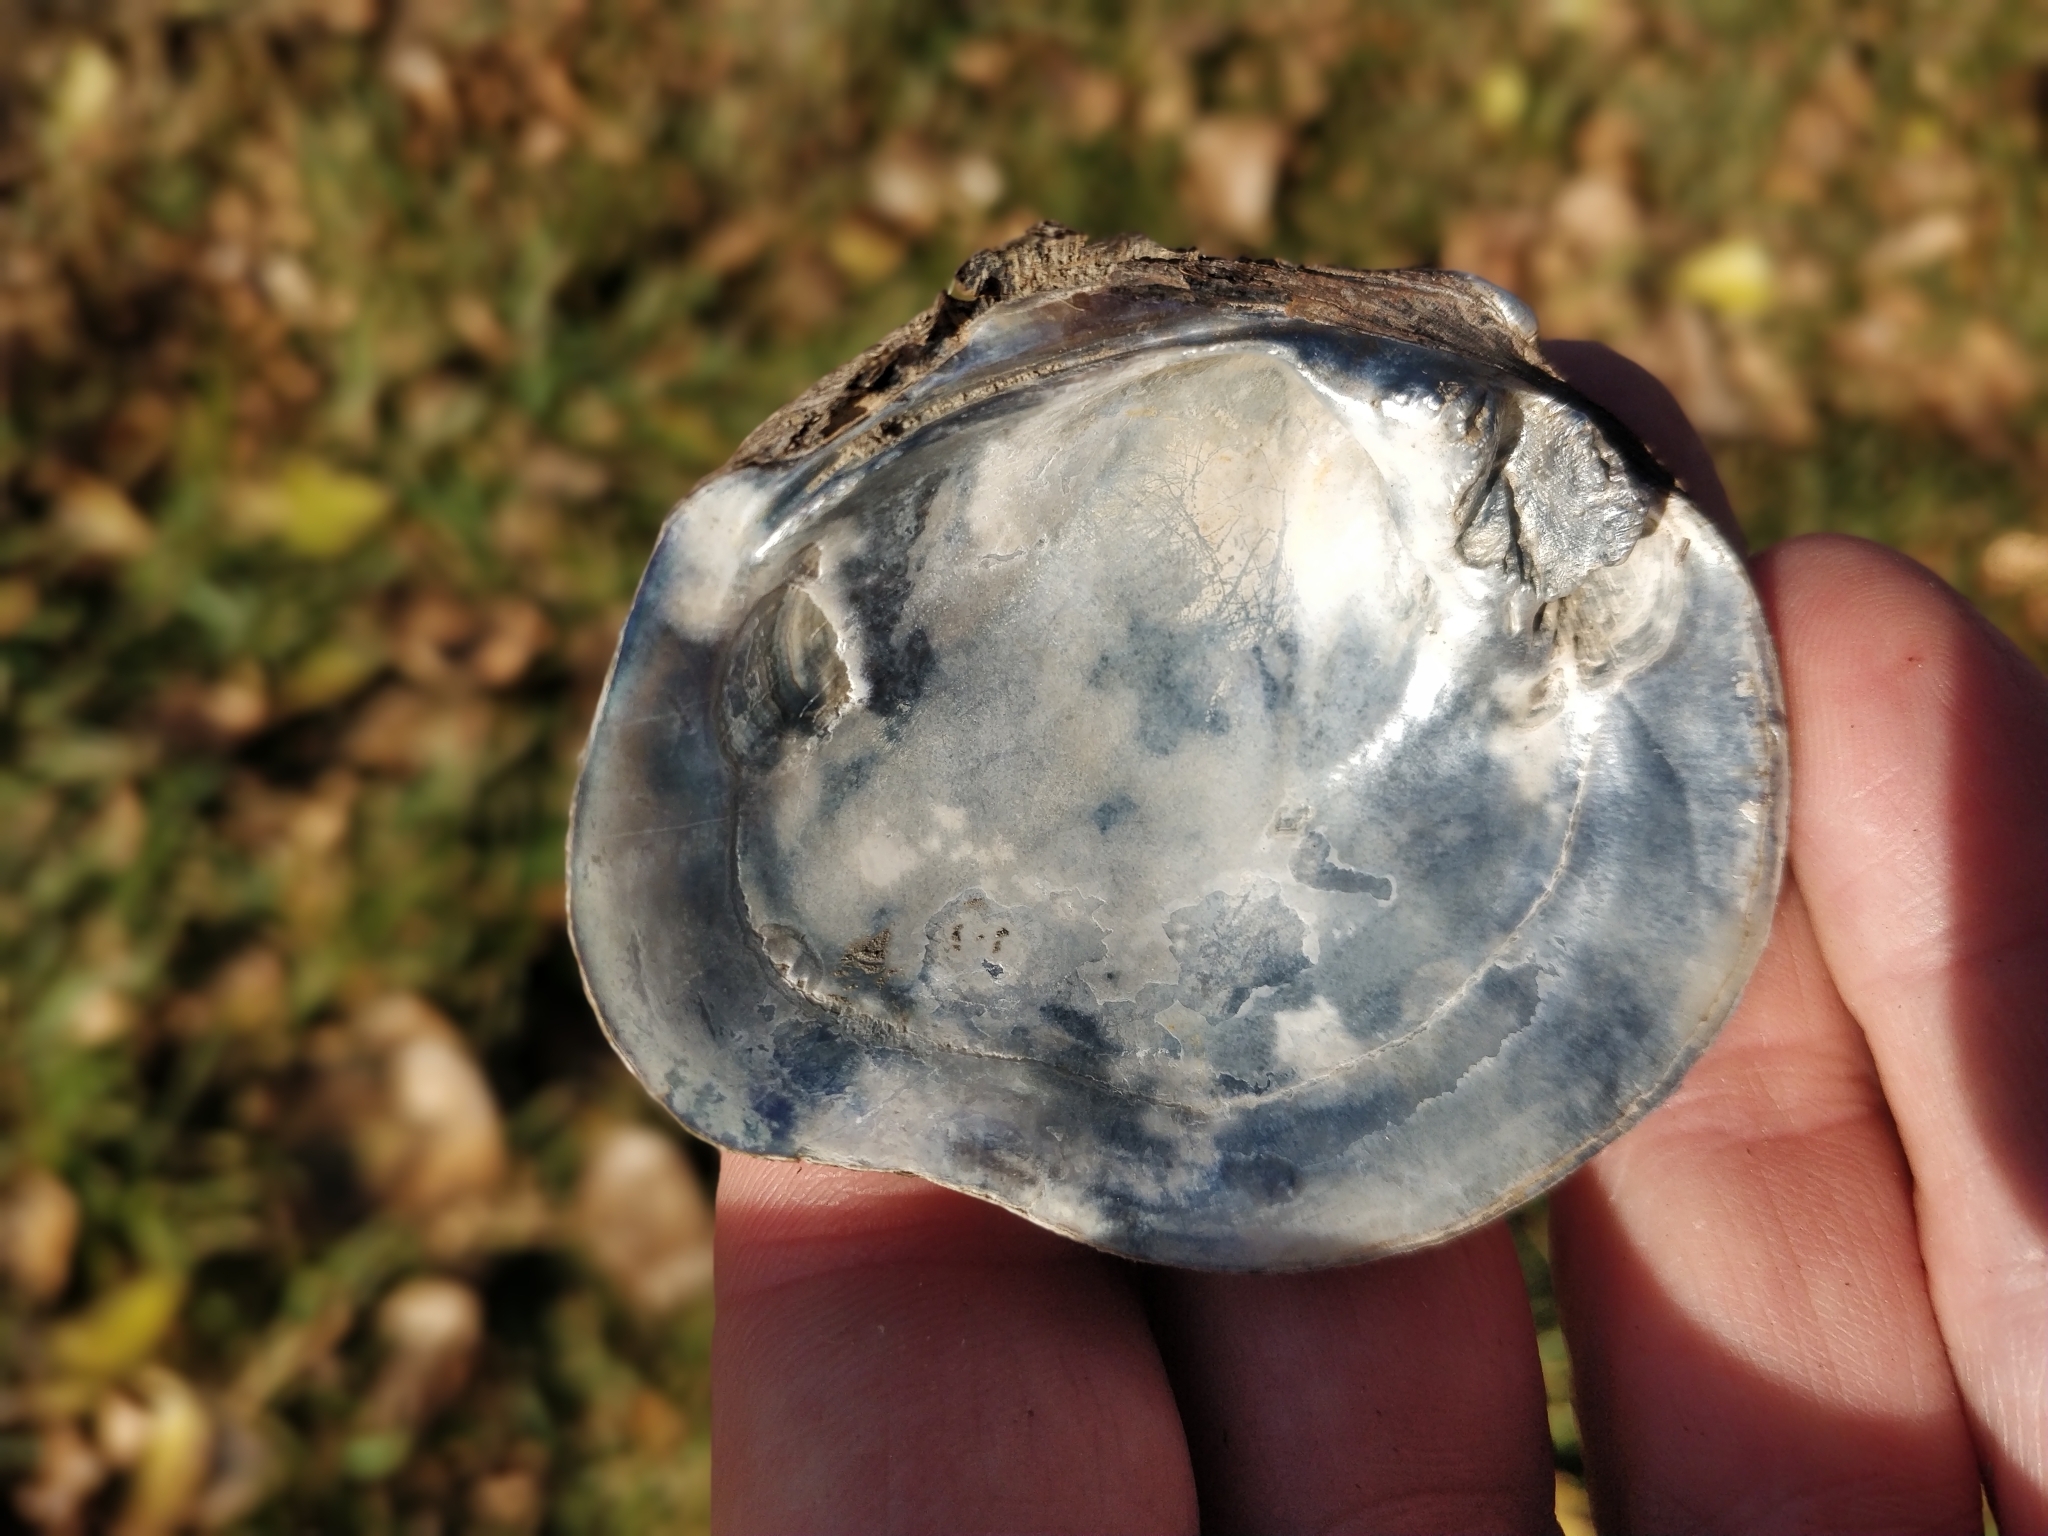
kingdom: Animalia
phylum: Mollusca
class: Bivalvia
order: Unionida
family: Unionidae
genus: Quadrula
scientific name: Quadrula quadrula
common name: Mapleleaf
